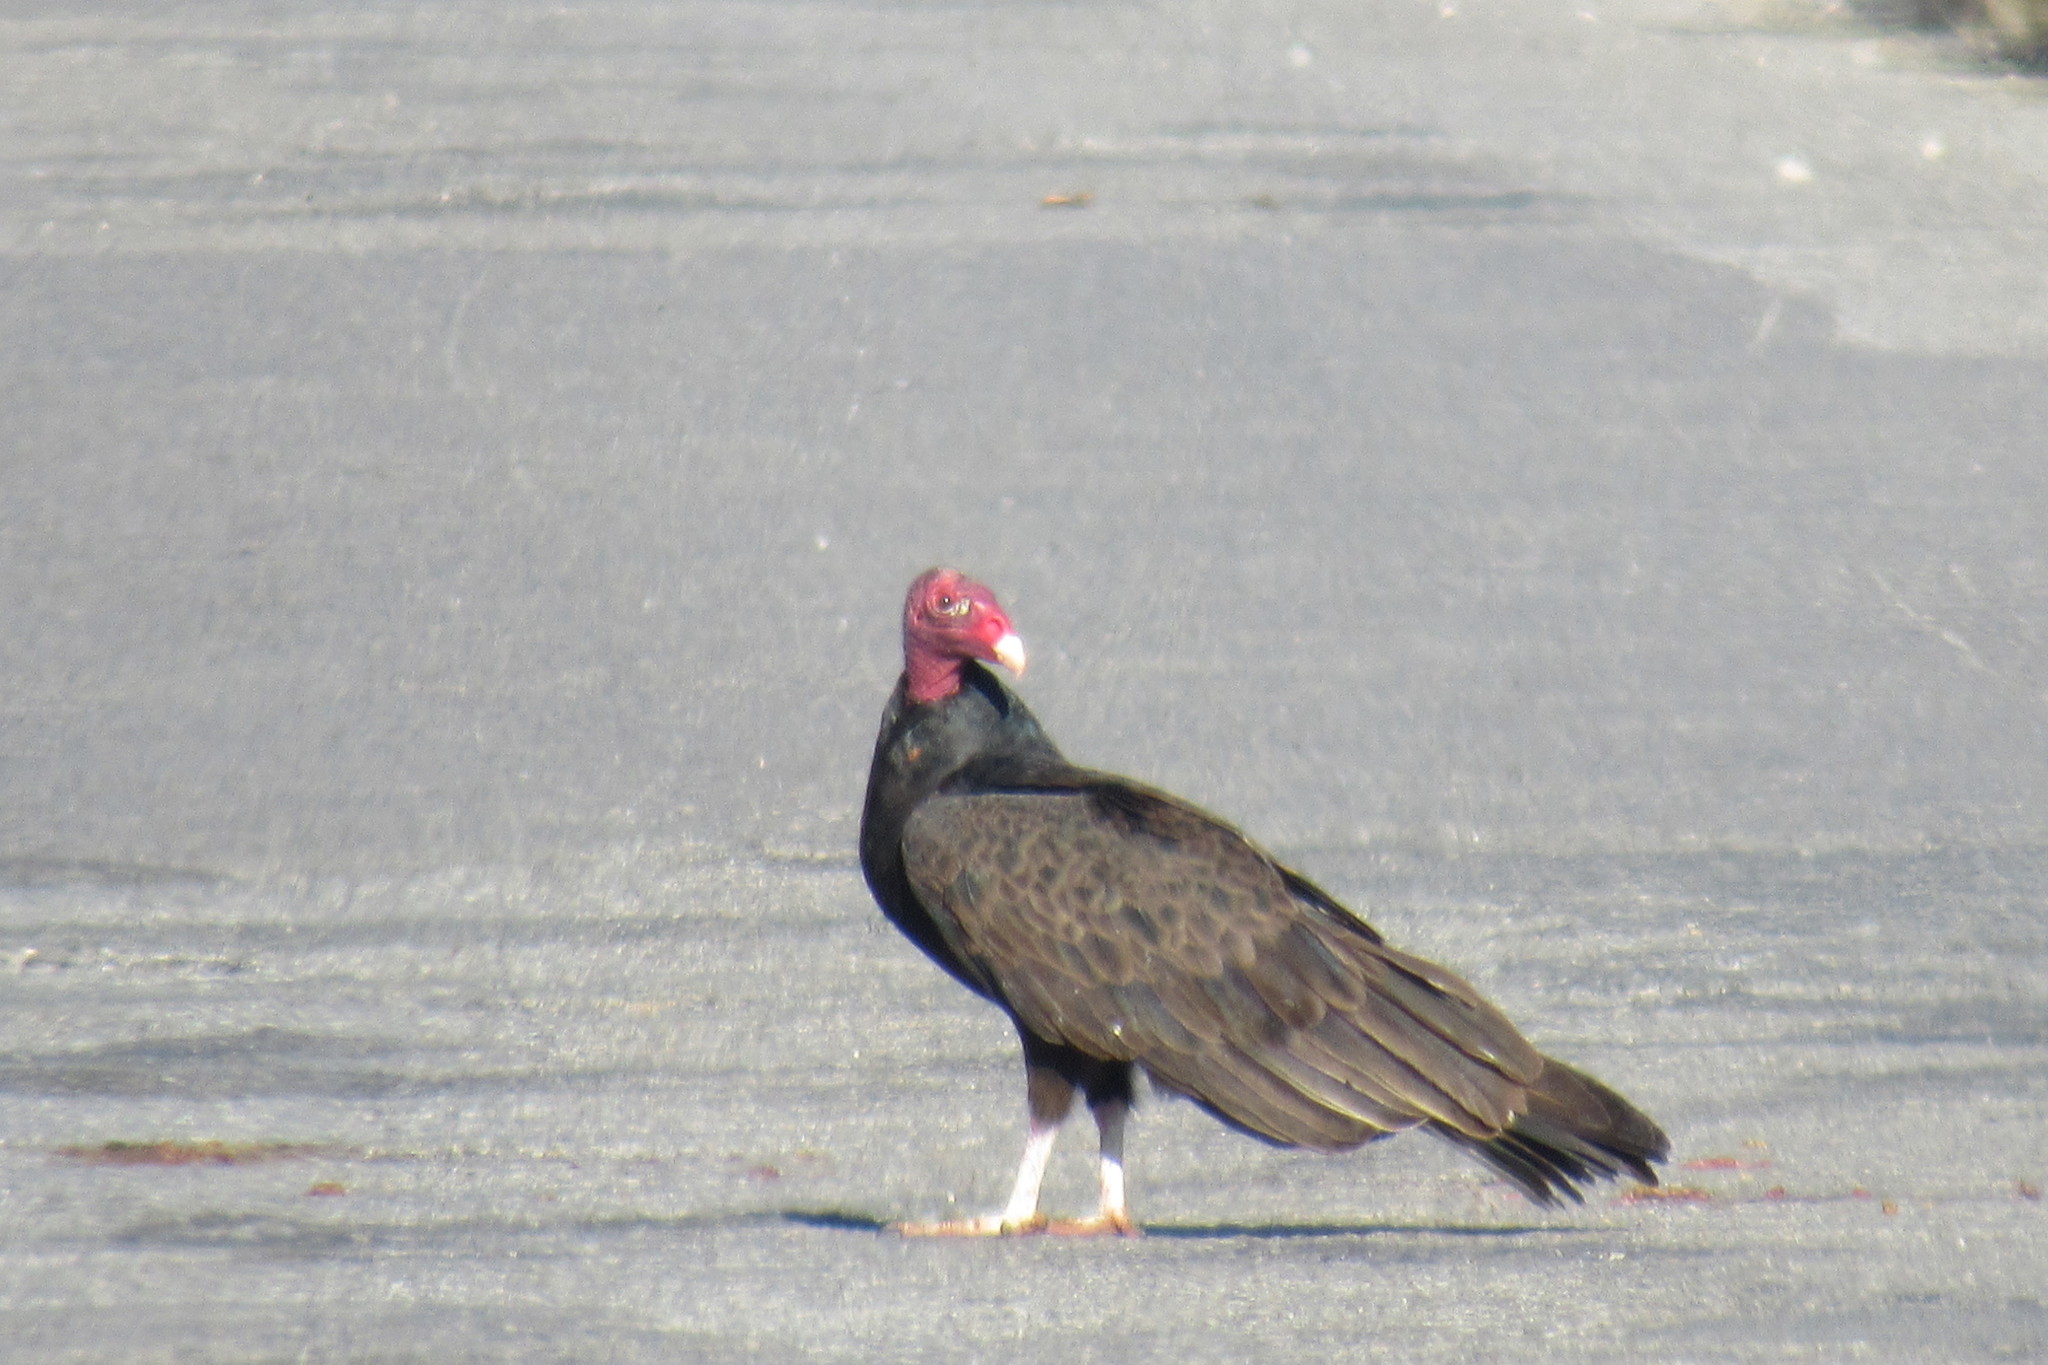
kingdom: Animalia
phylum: Chordata
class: Aves
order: Accipitriformes
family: Cathartidae
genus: Cathartes
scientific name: Cathartes aura
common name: Turkey vulture
